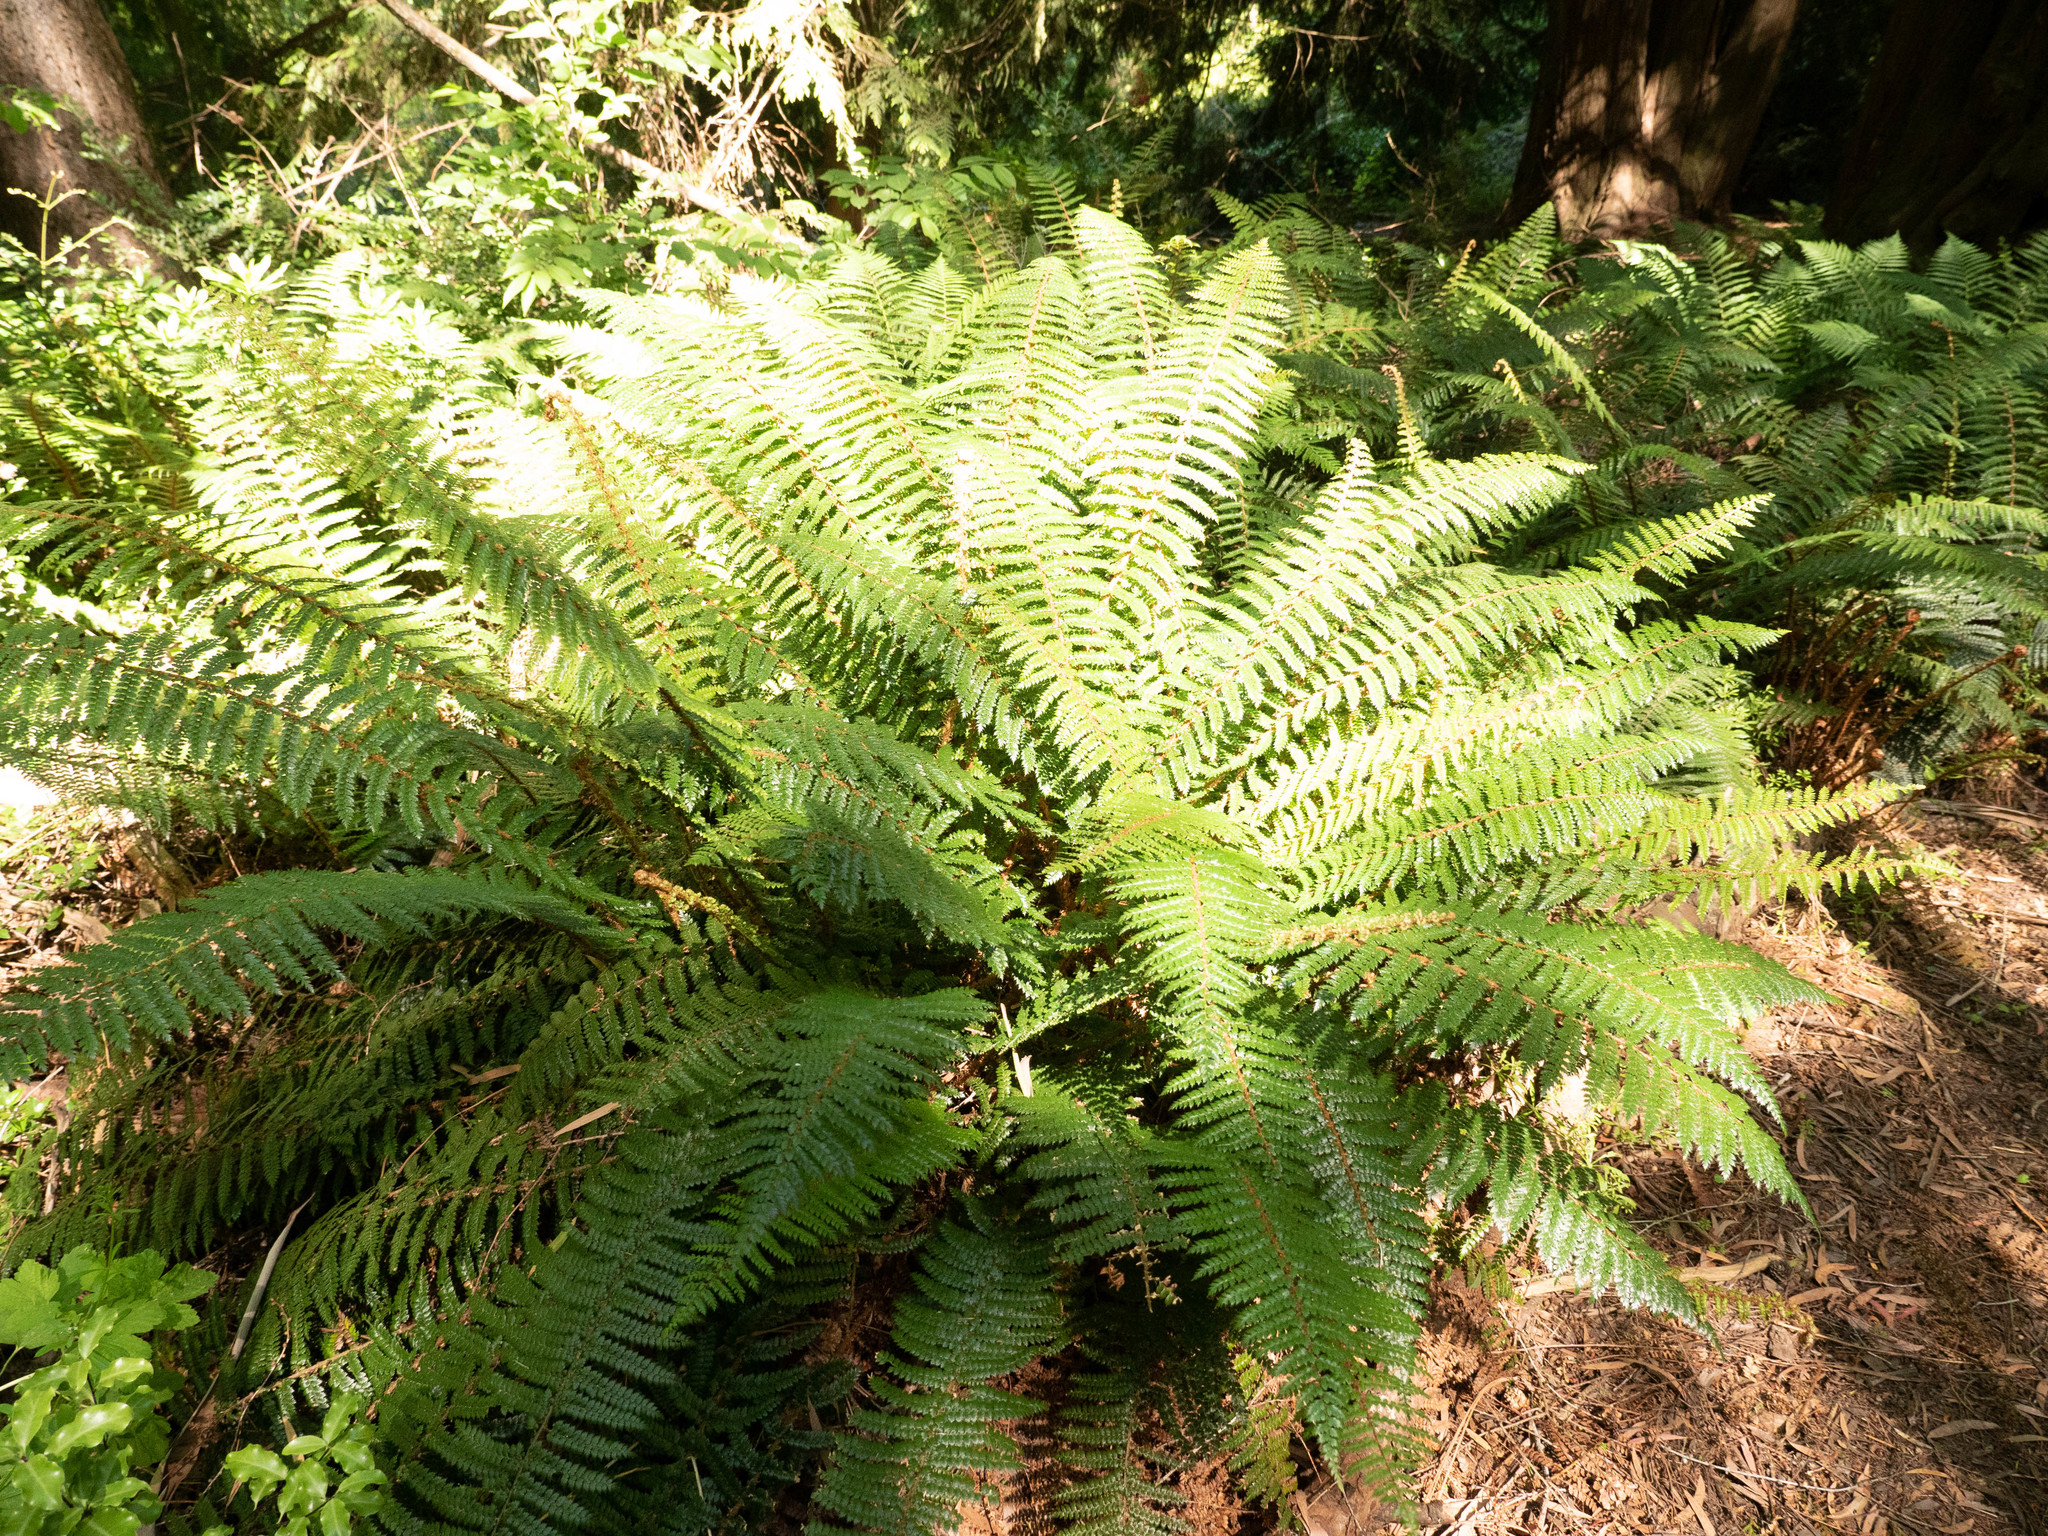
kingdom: Plantae
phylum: Tracheophyta
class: Polypodiopsida
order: Polypodiales
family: Dryopteridaceae
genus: Polystichum
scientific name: Polystichum vestitum
